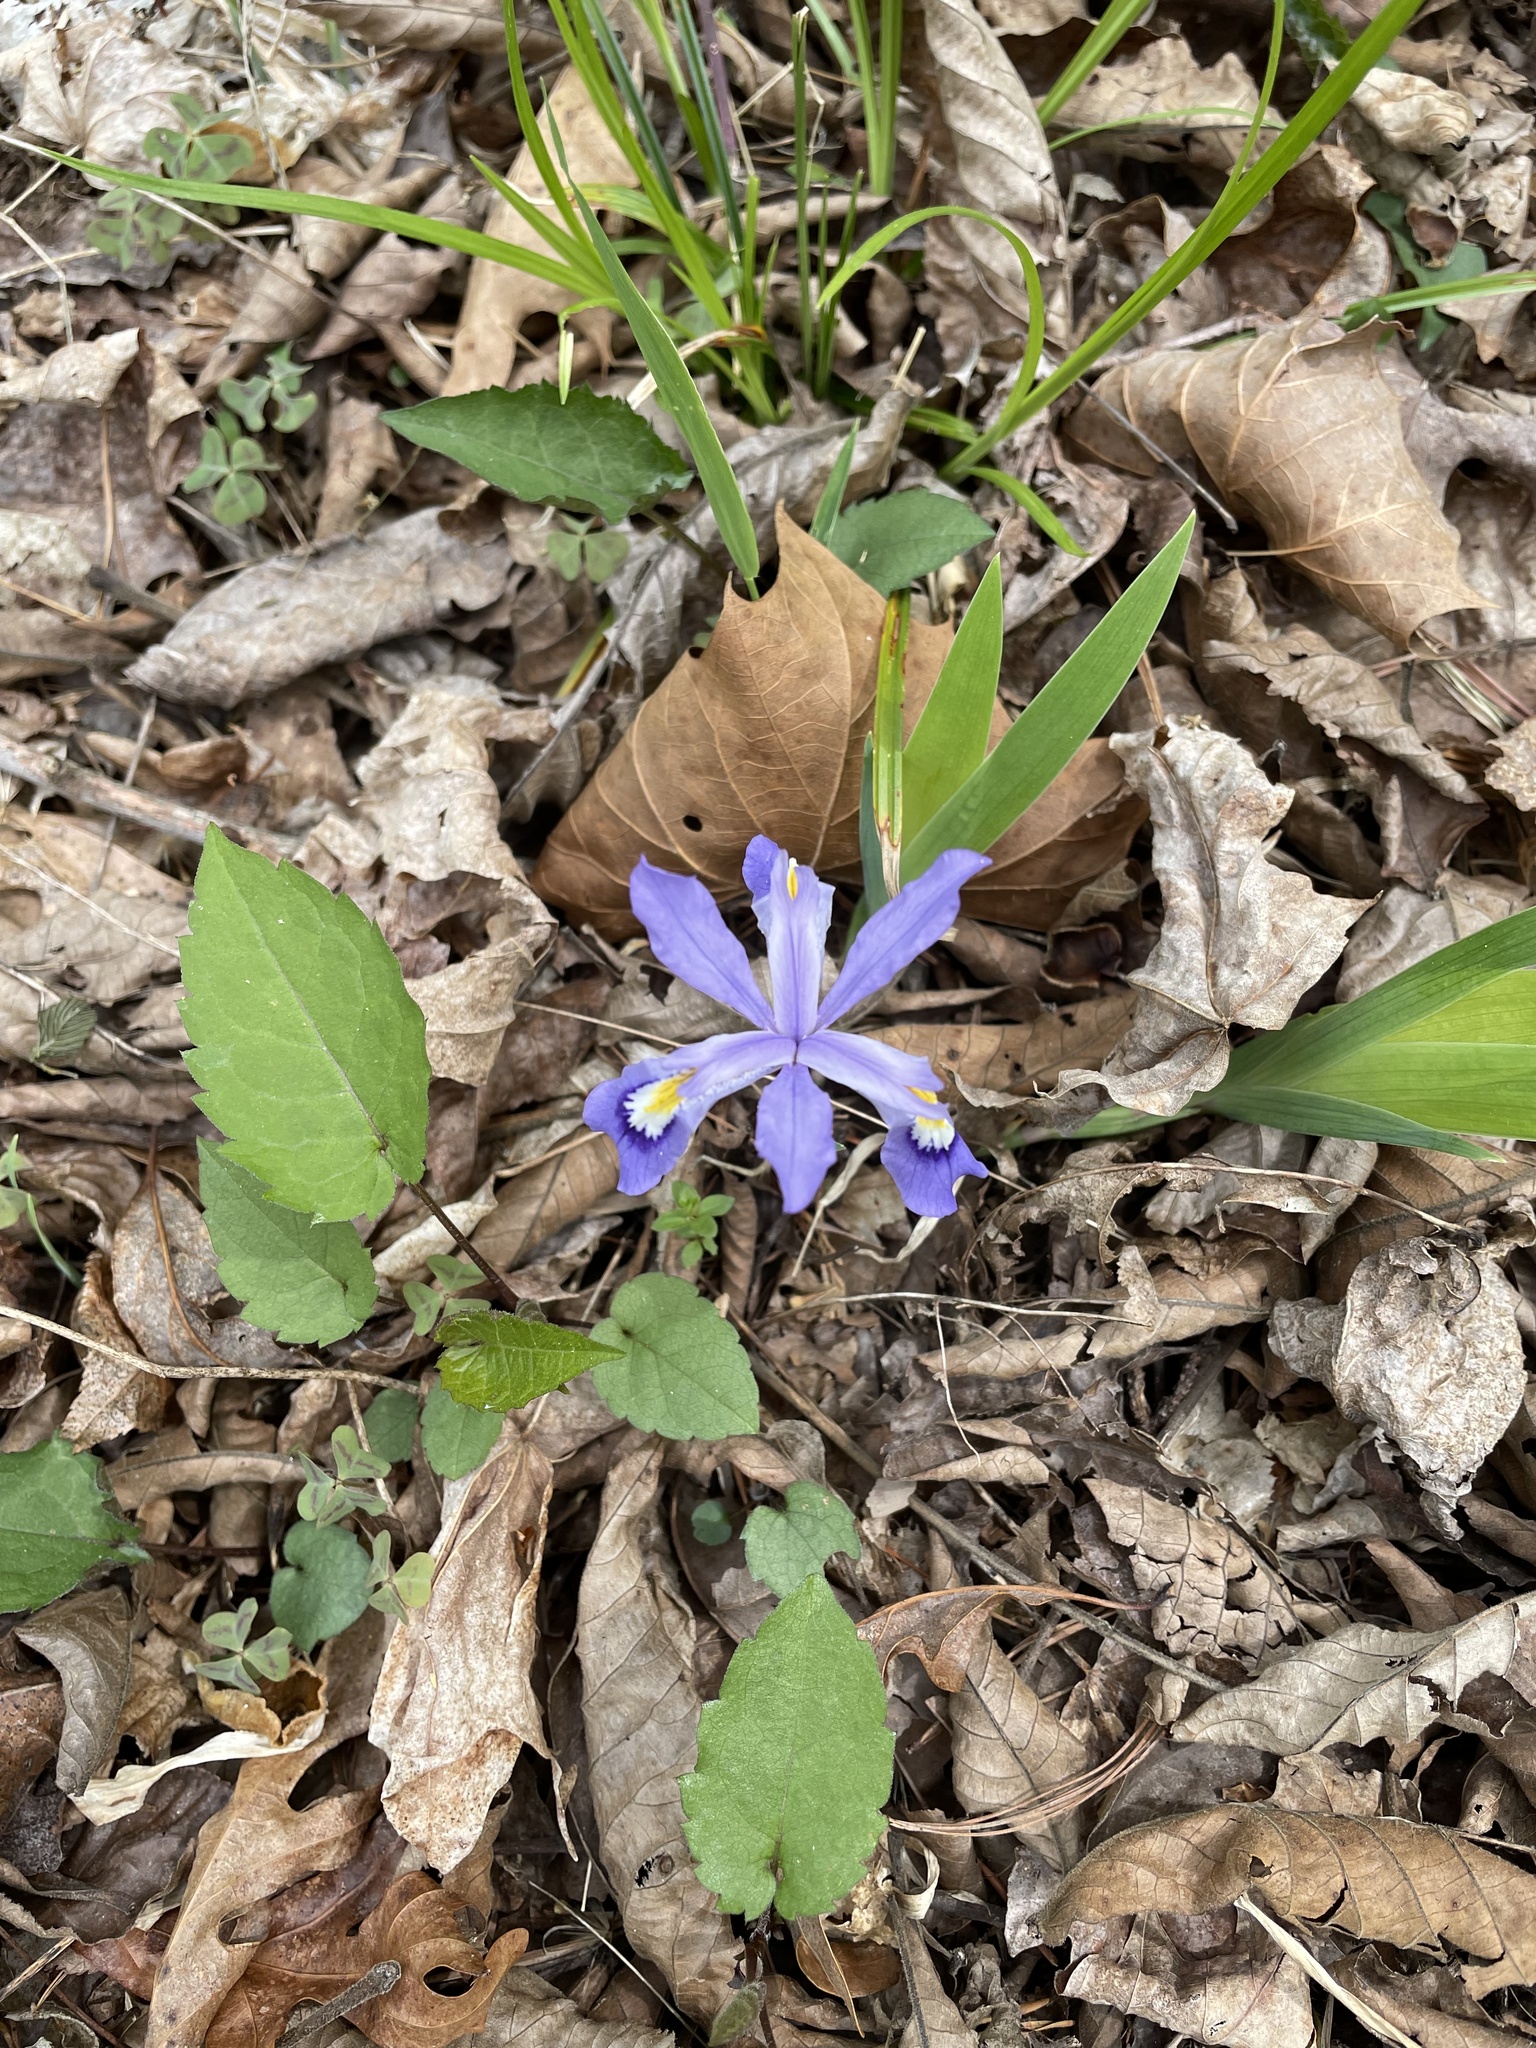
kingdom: Plantae
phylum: Tracheophyta
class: Liliopsida
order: Asparagales
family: Iridaceae
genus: Iris
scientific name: Iris cristata
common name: Crested iris
